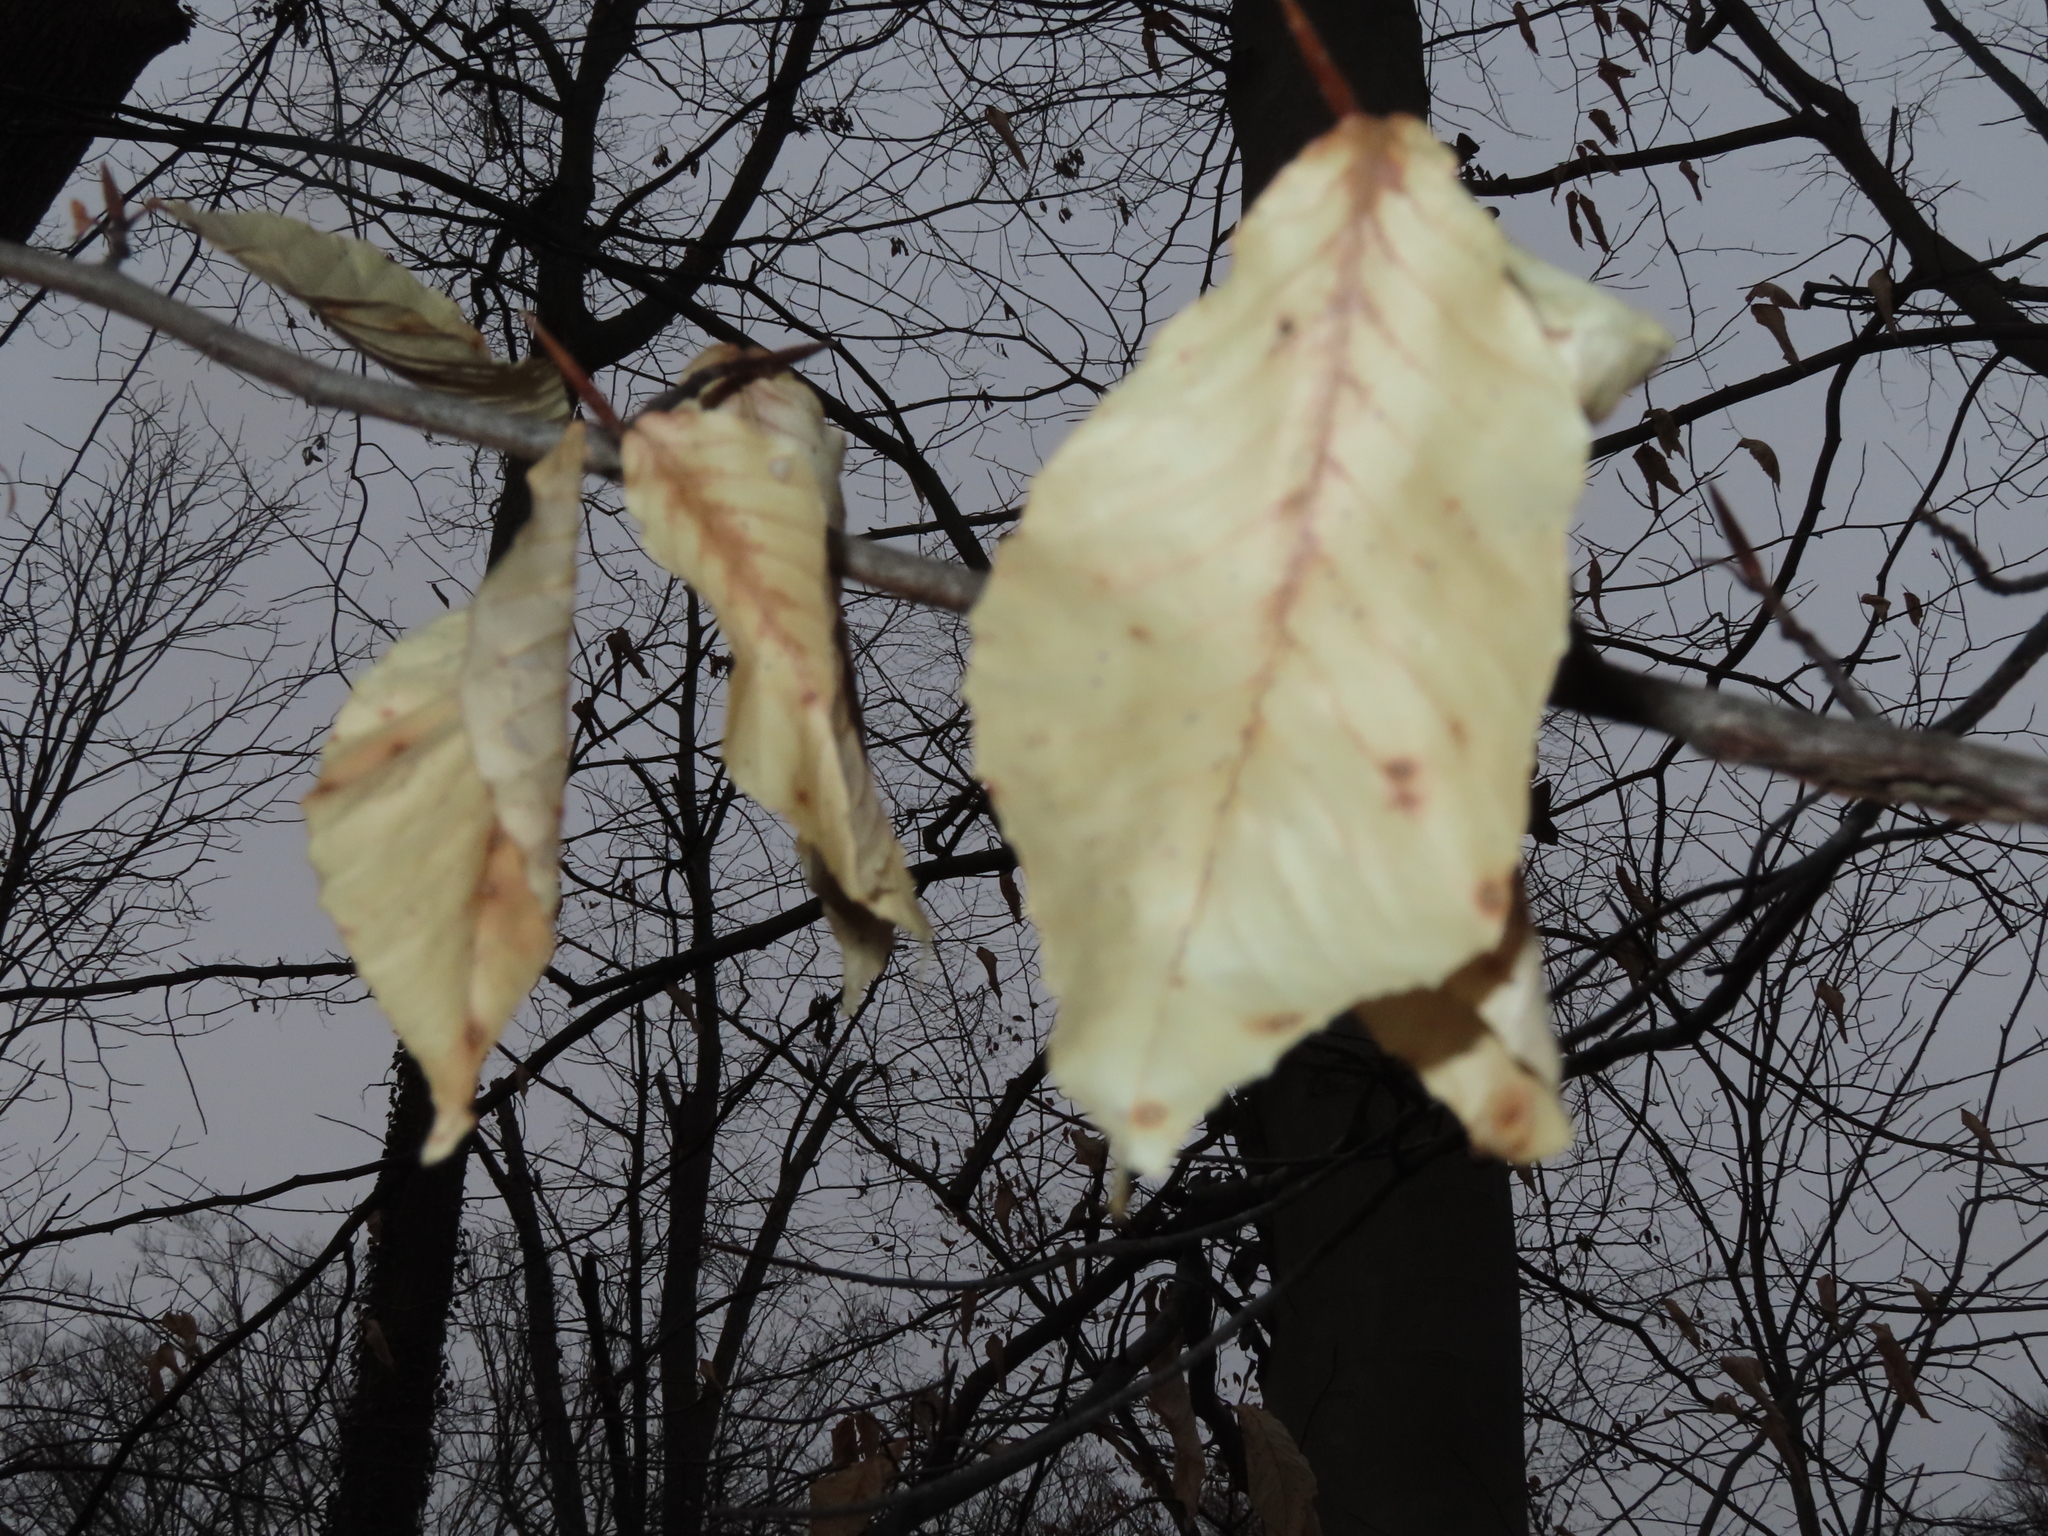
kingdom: Plantae
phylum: Tracheophyta
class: Magnoliopsida
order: Fagales
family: Fagaceae
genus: Fagus
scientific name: Fagus grandifolia
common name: American beech
